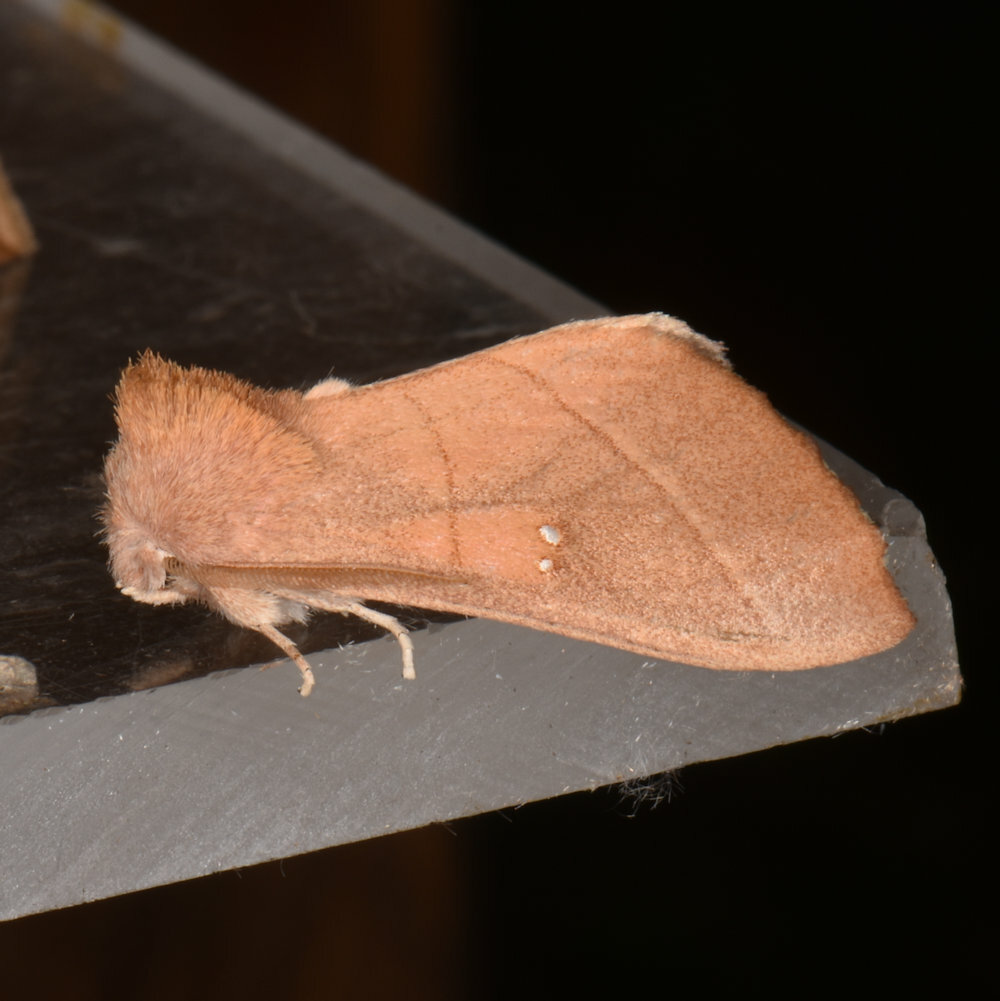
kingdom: Animalia
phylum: Arthropoda
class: Insecta
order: Lepidoptera
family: Notodontidae
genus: Nadata
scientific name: Nadata gibbosa
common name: White-dotted prominent
